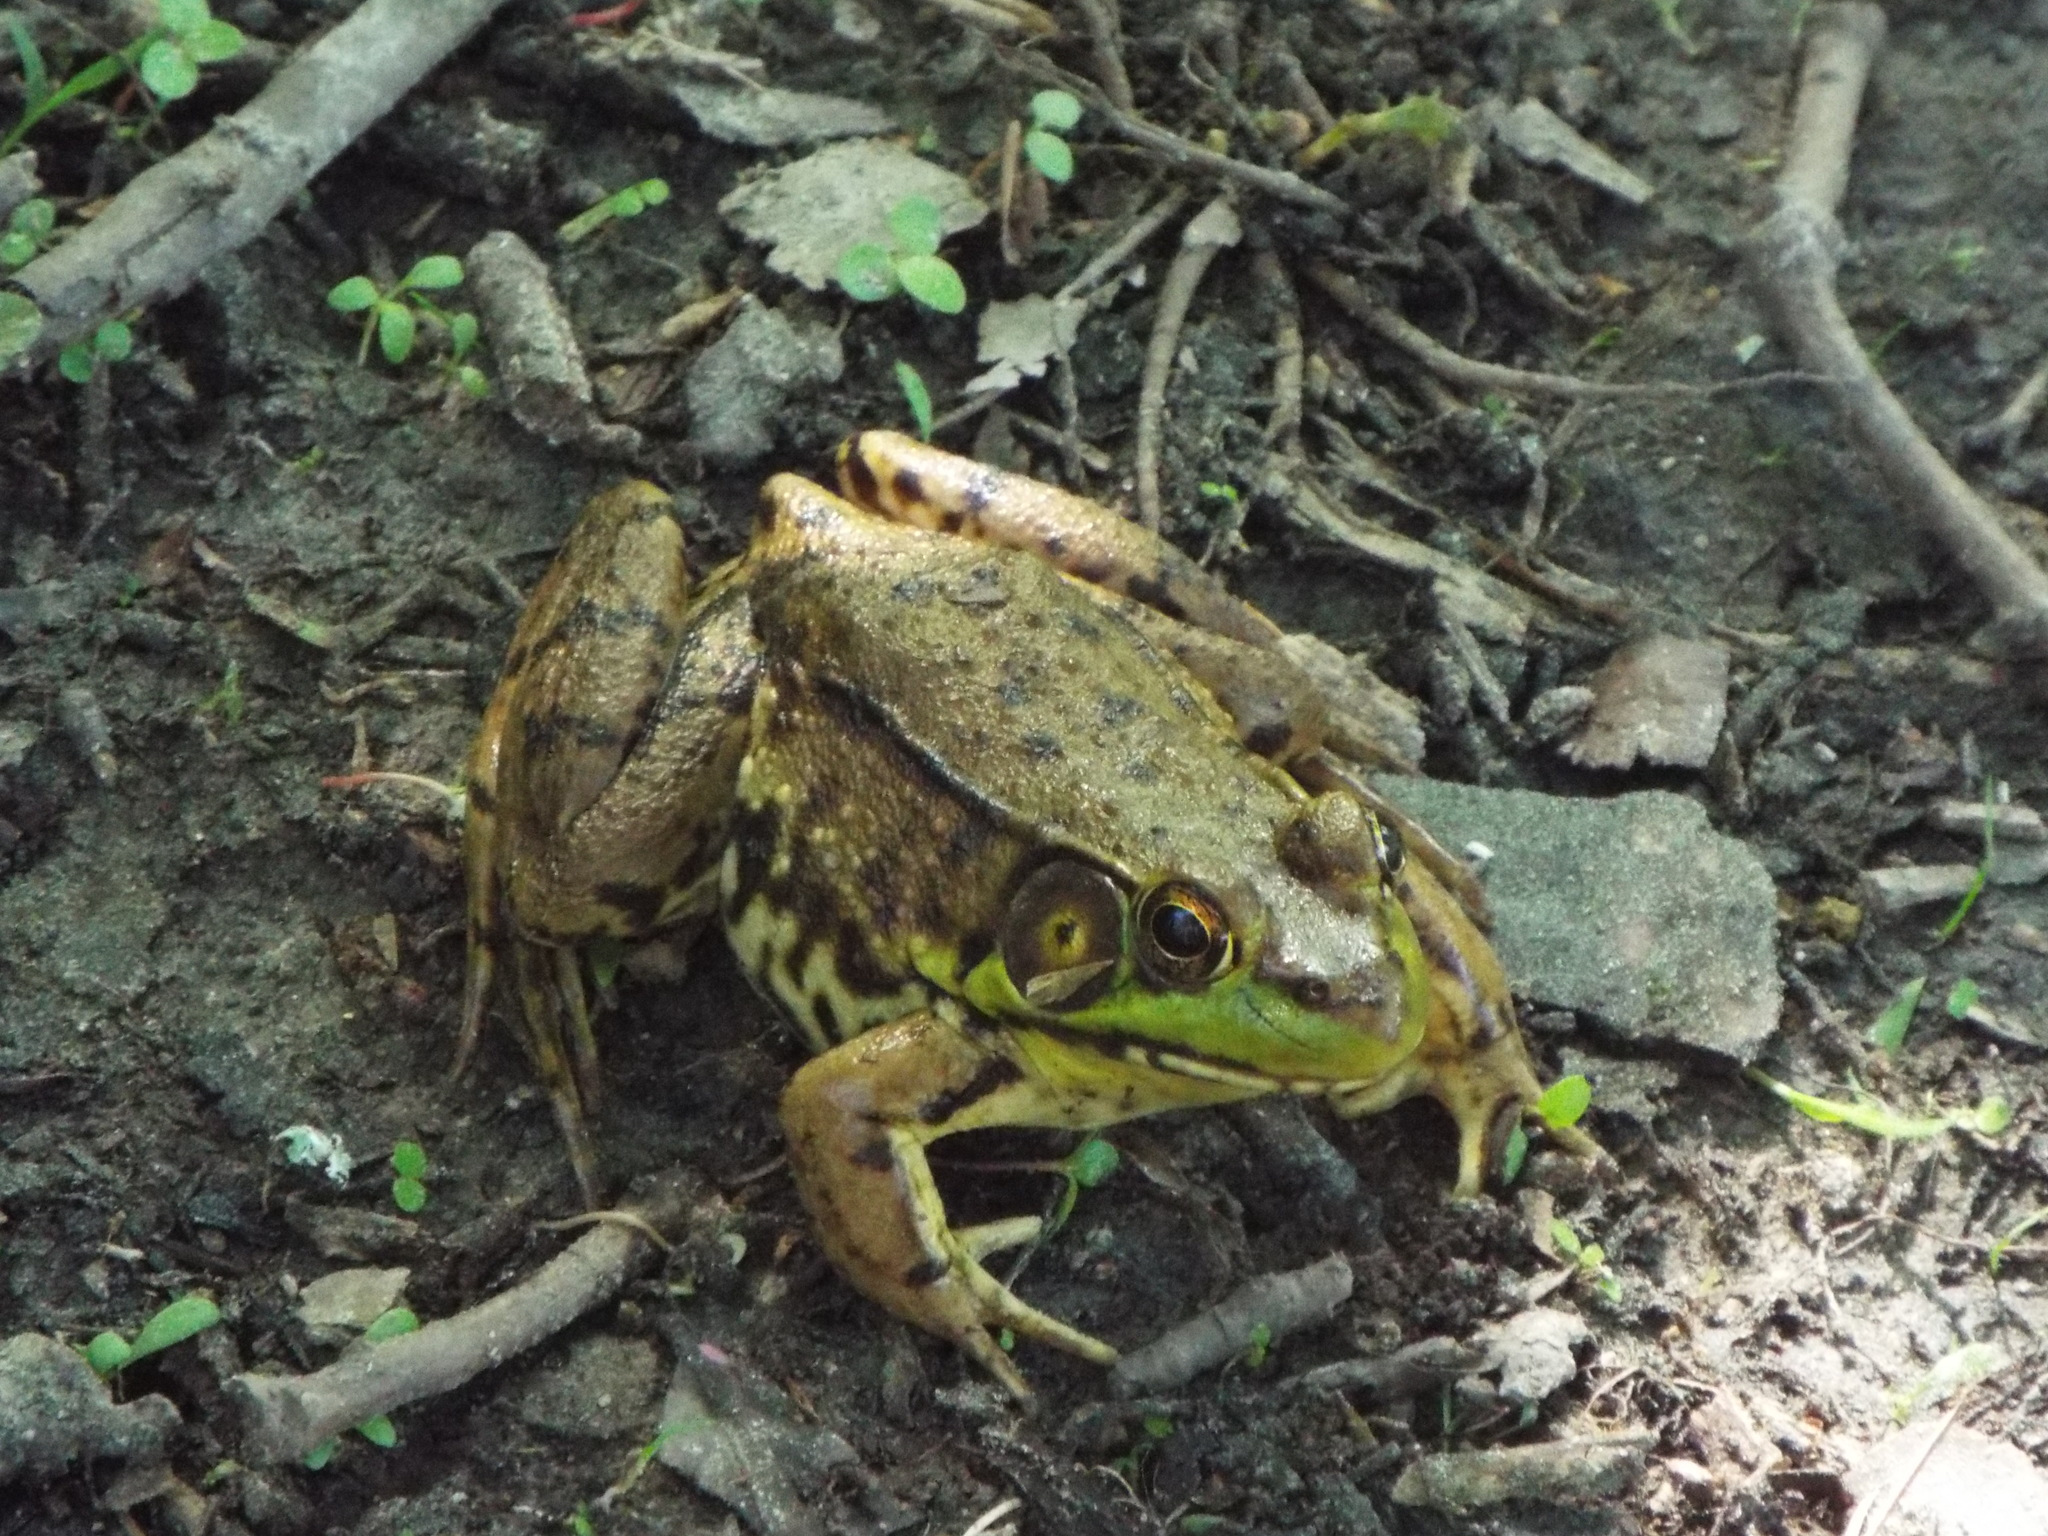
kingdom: Animalia
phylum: Chordata
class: Amphibia
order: Anura
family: Ranidae
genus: Lithobates
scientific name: Lithobates clamitans
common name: Green frog
